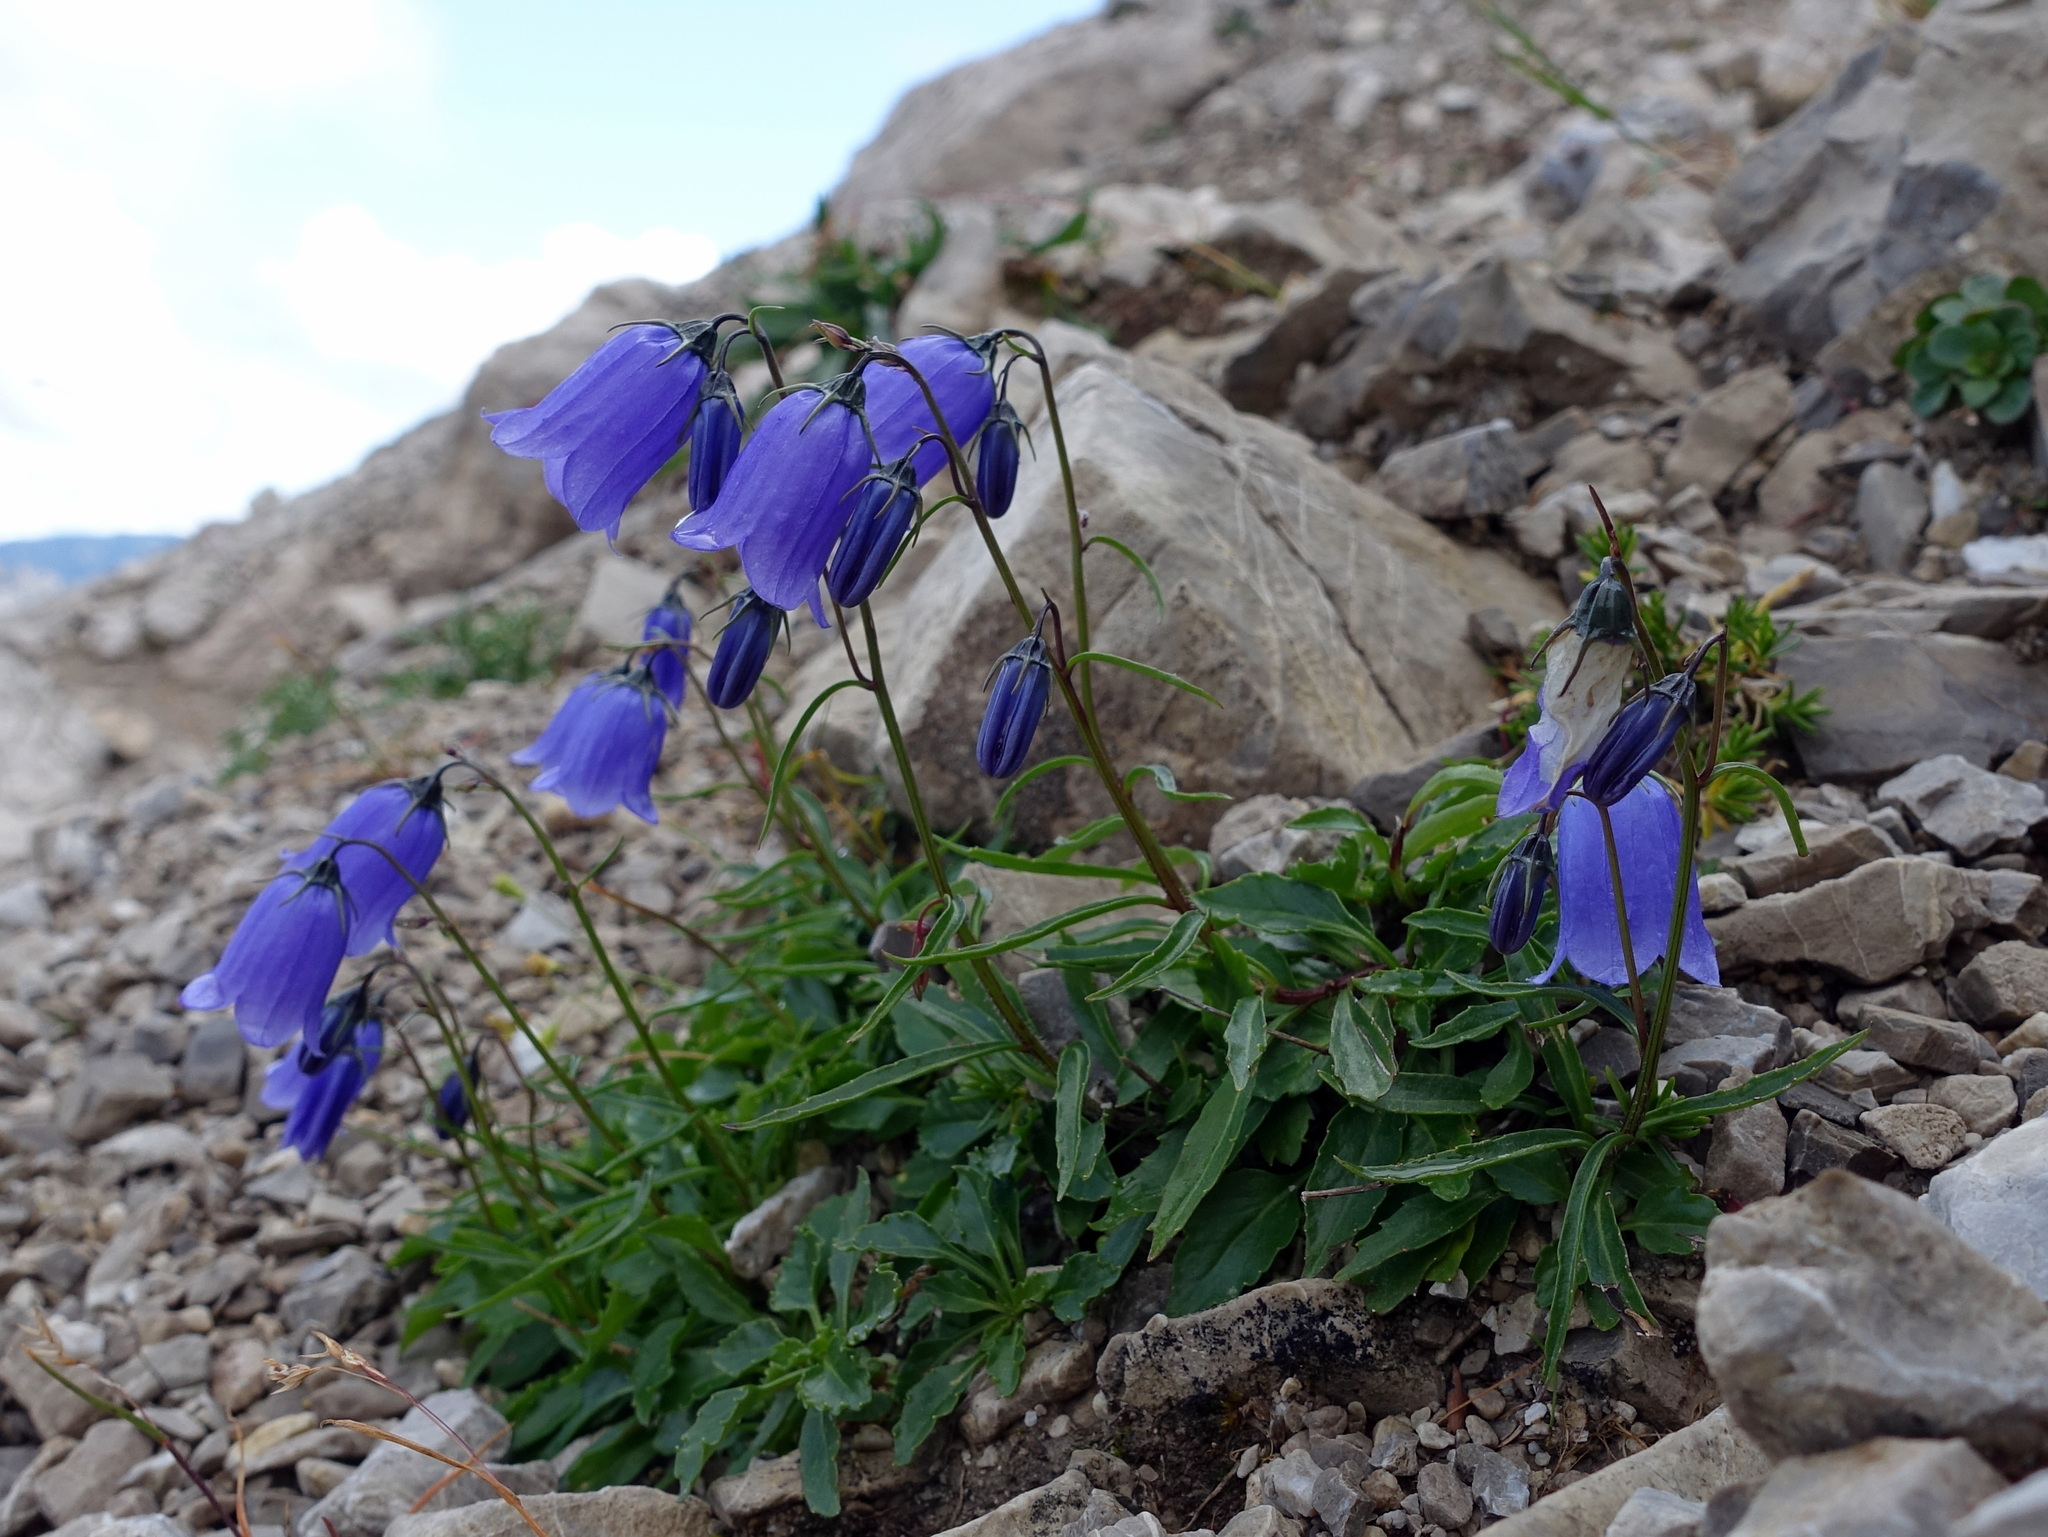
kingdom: Plantae
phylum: Tracheophyta
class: Magnoliopsida
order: Asterales
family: Campanulaceae
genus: Campanula
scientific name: Campanula cochleariifolia
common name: Fairies'-thimbles
